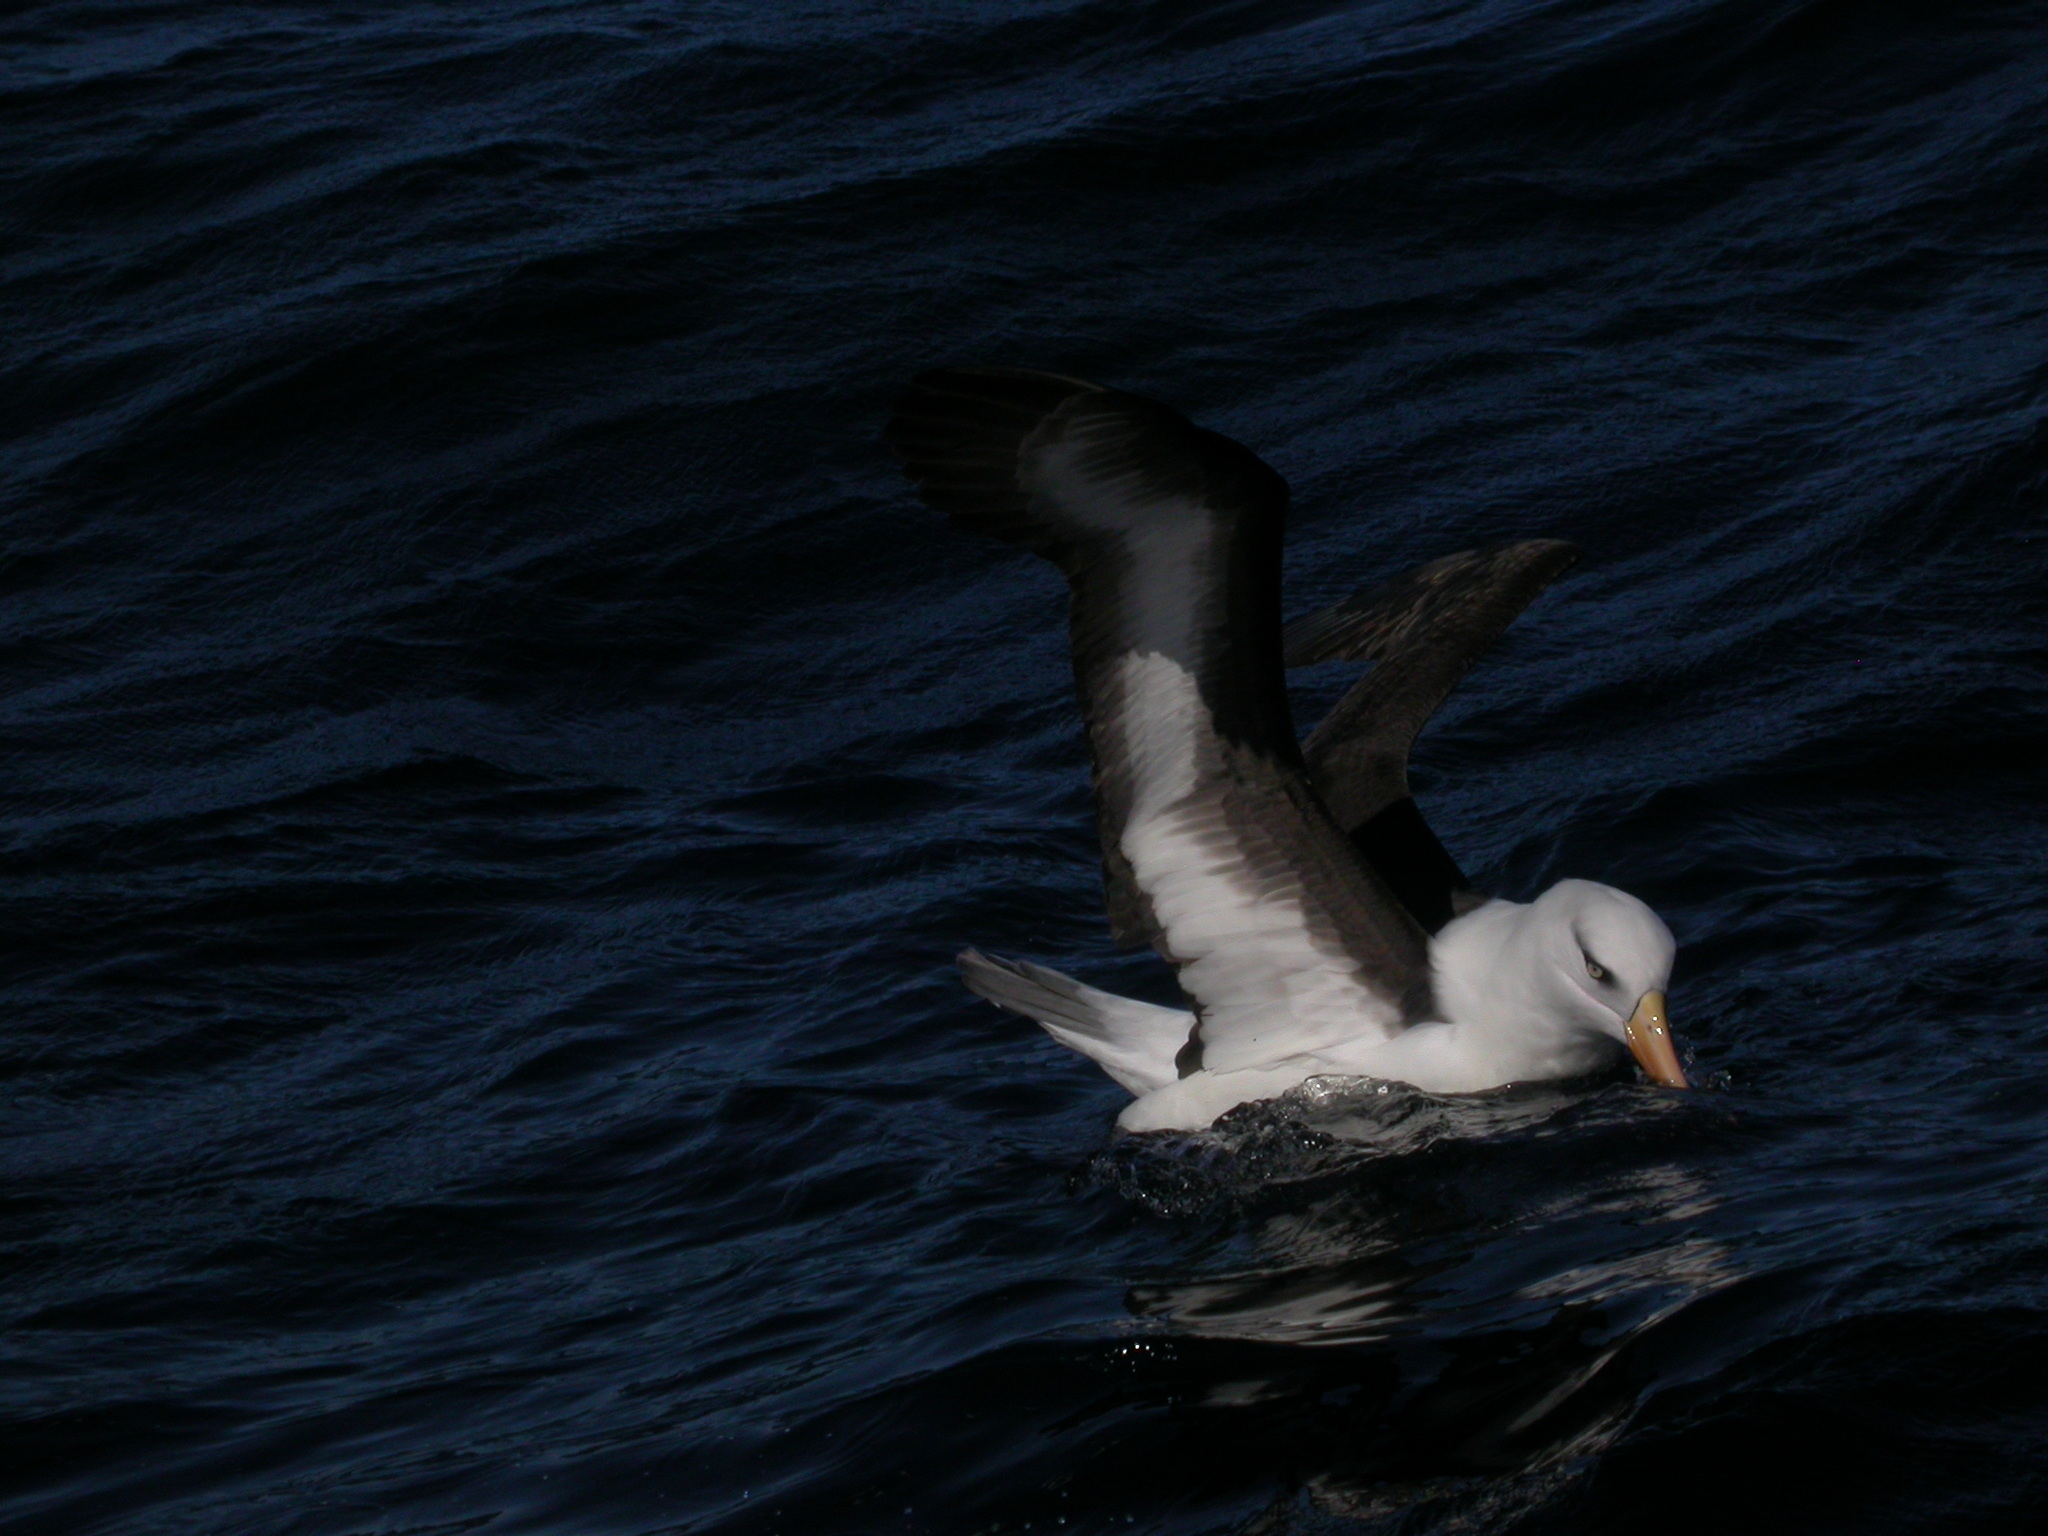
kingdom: Animalia
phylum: Chordata
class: Aves
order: Procellariiformes
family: Diomedeidae
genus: Thalassarche
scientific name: Thalassarche impavida
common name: Campbell albatross
